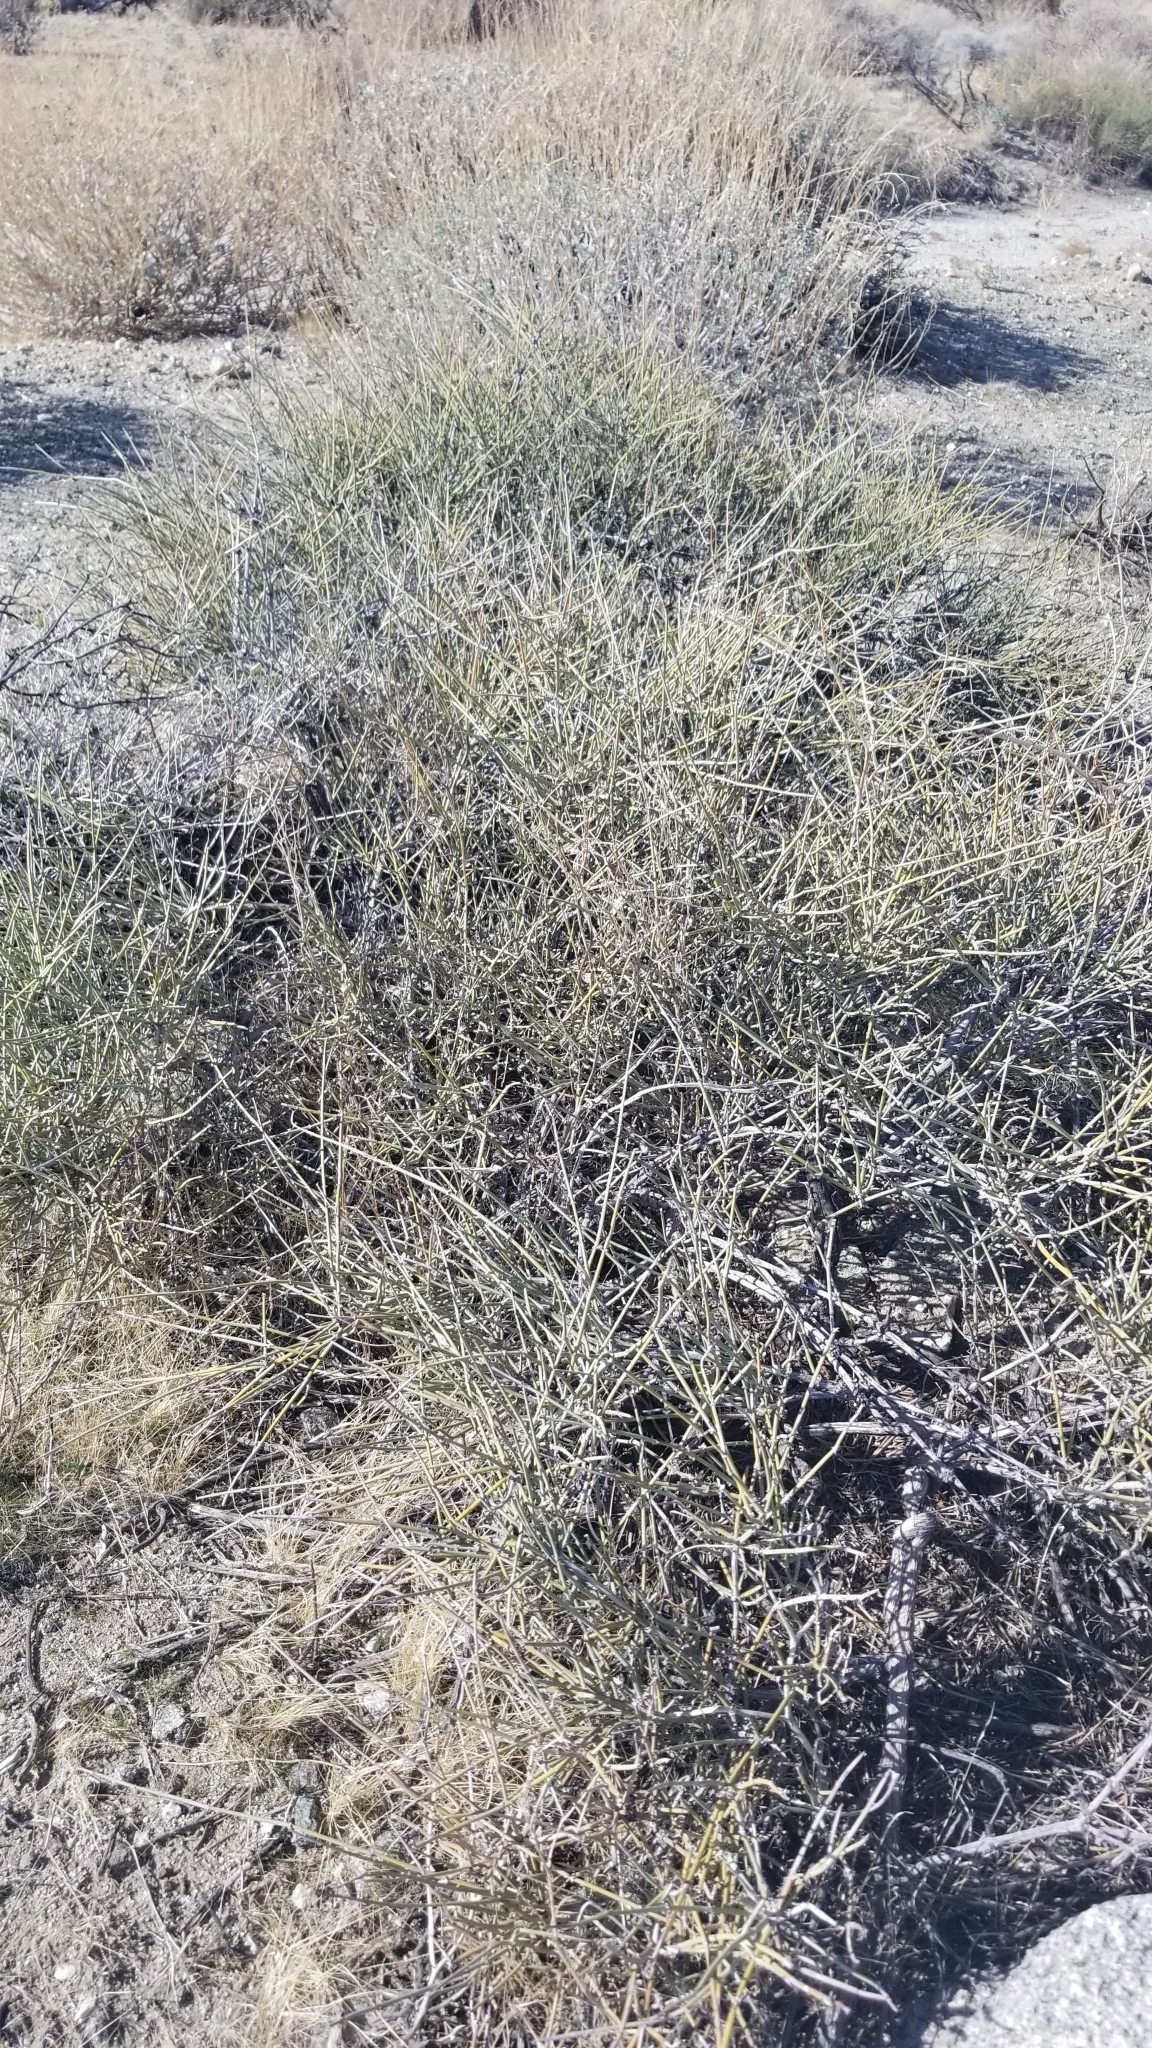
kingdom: Plantae
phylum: Tracheophyta
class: Gnetopsida
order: Ephedrales
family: Ephedraceae
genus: Ephedra
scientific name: Ephedra californica
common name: California ephedra
